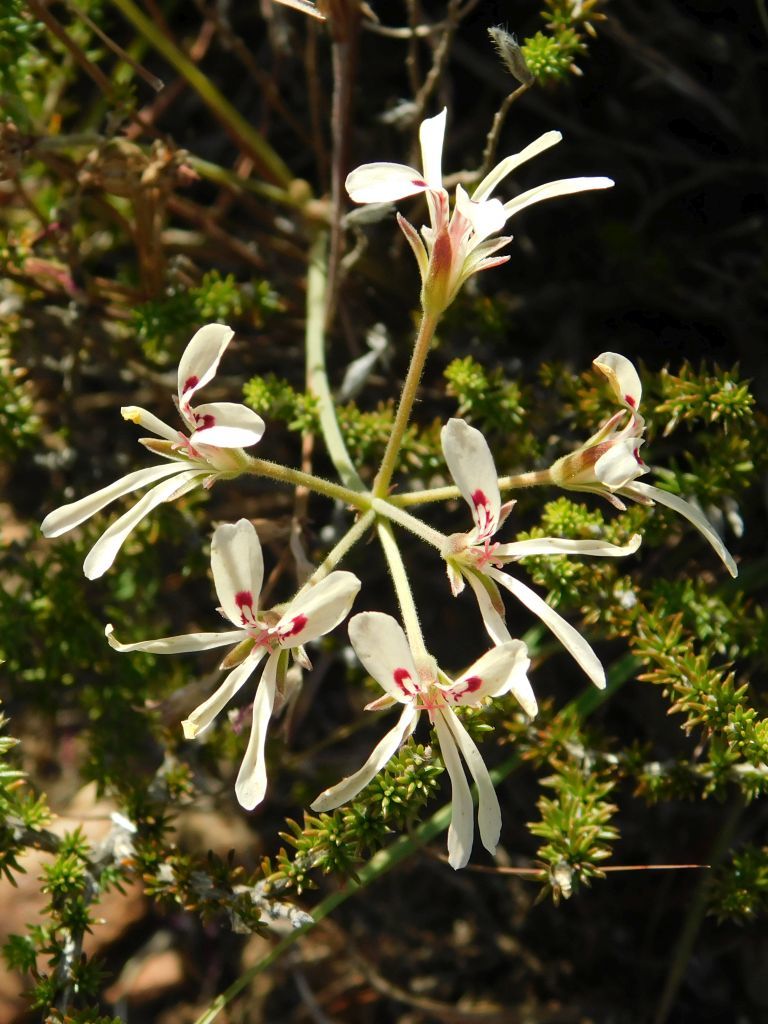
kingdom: Plantae
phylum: Tracheophyta
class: Magnoliopsida
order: Geraniales
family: Geraniaceae
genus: Pelargonium
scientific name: Pelargonium pinnatum
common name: Pinnated pelargonium
